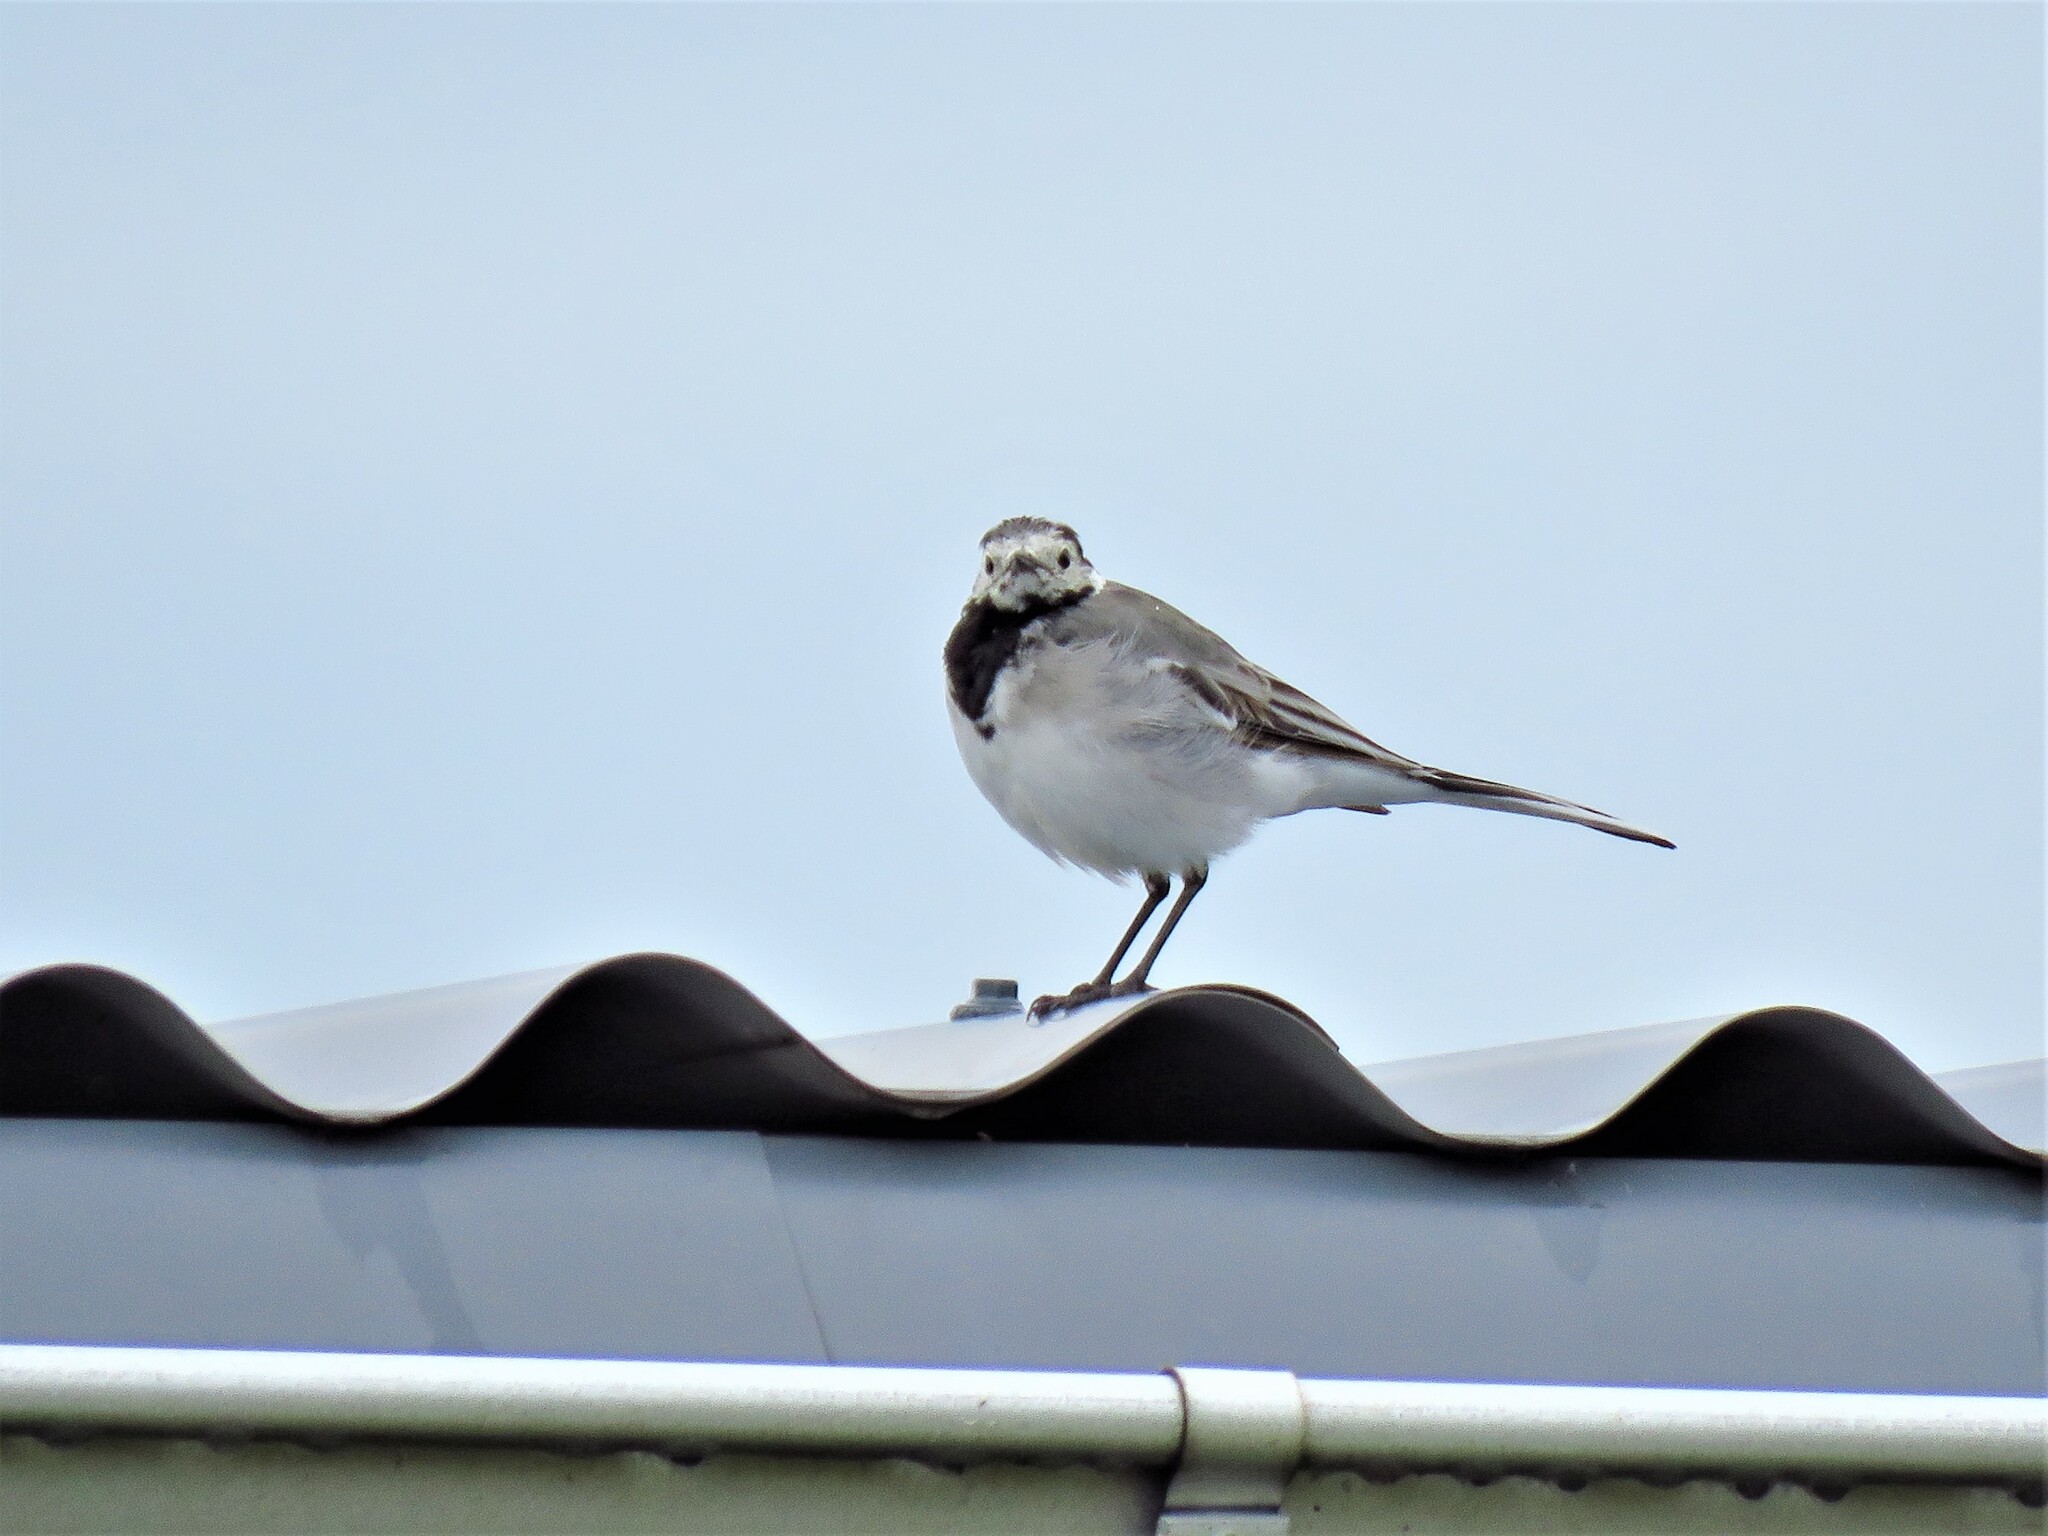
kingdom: Animalia
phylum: Chordata
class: Aves
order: Passeriformes
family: Motacillidae
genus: Motacilla
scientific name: Motacilla alba
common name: White wagtail
